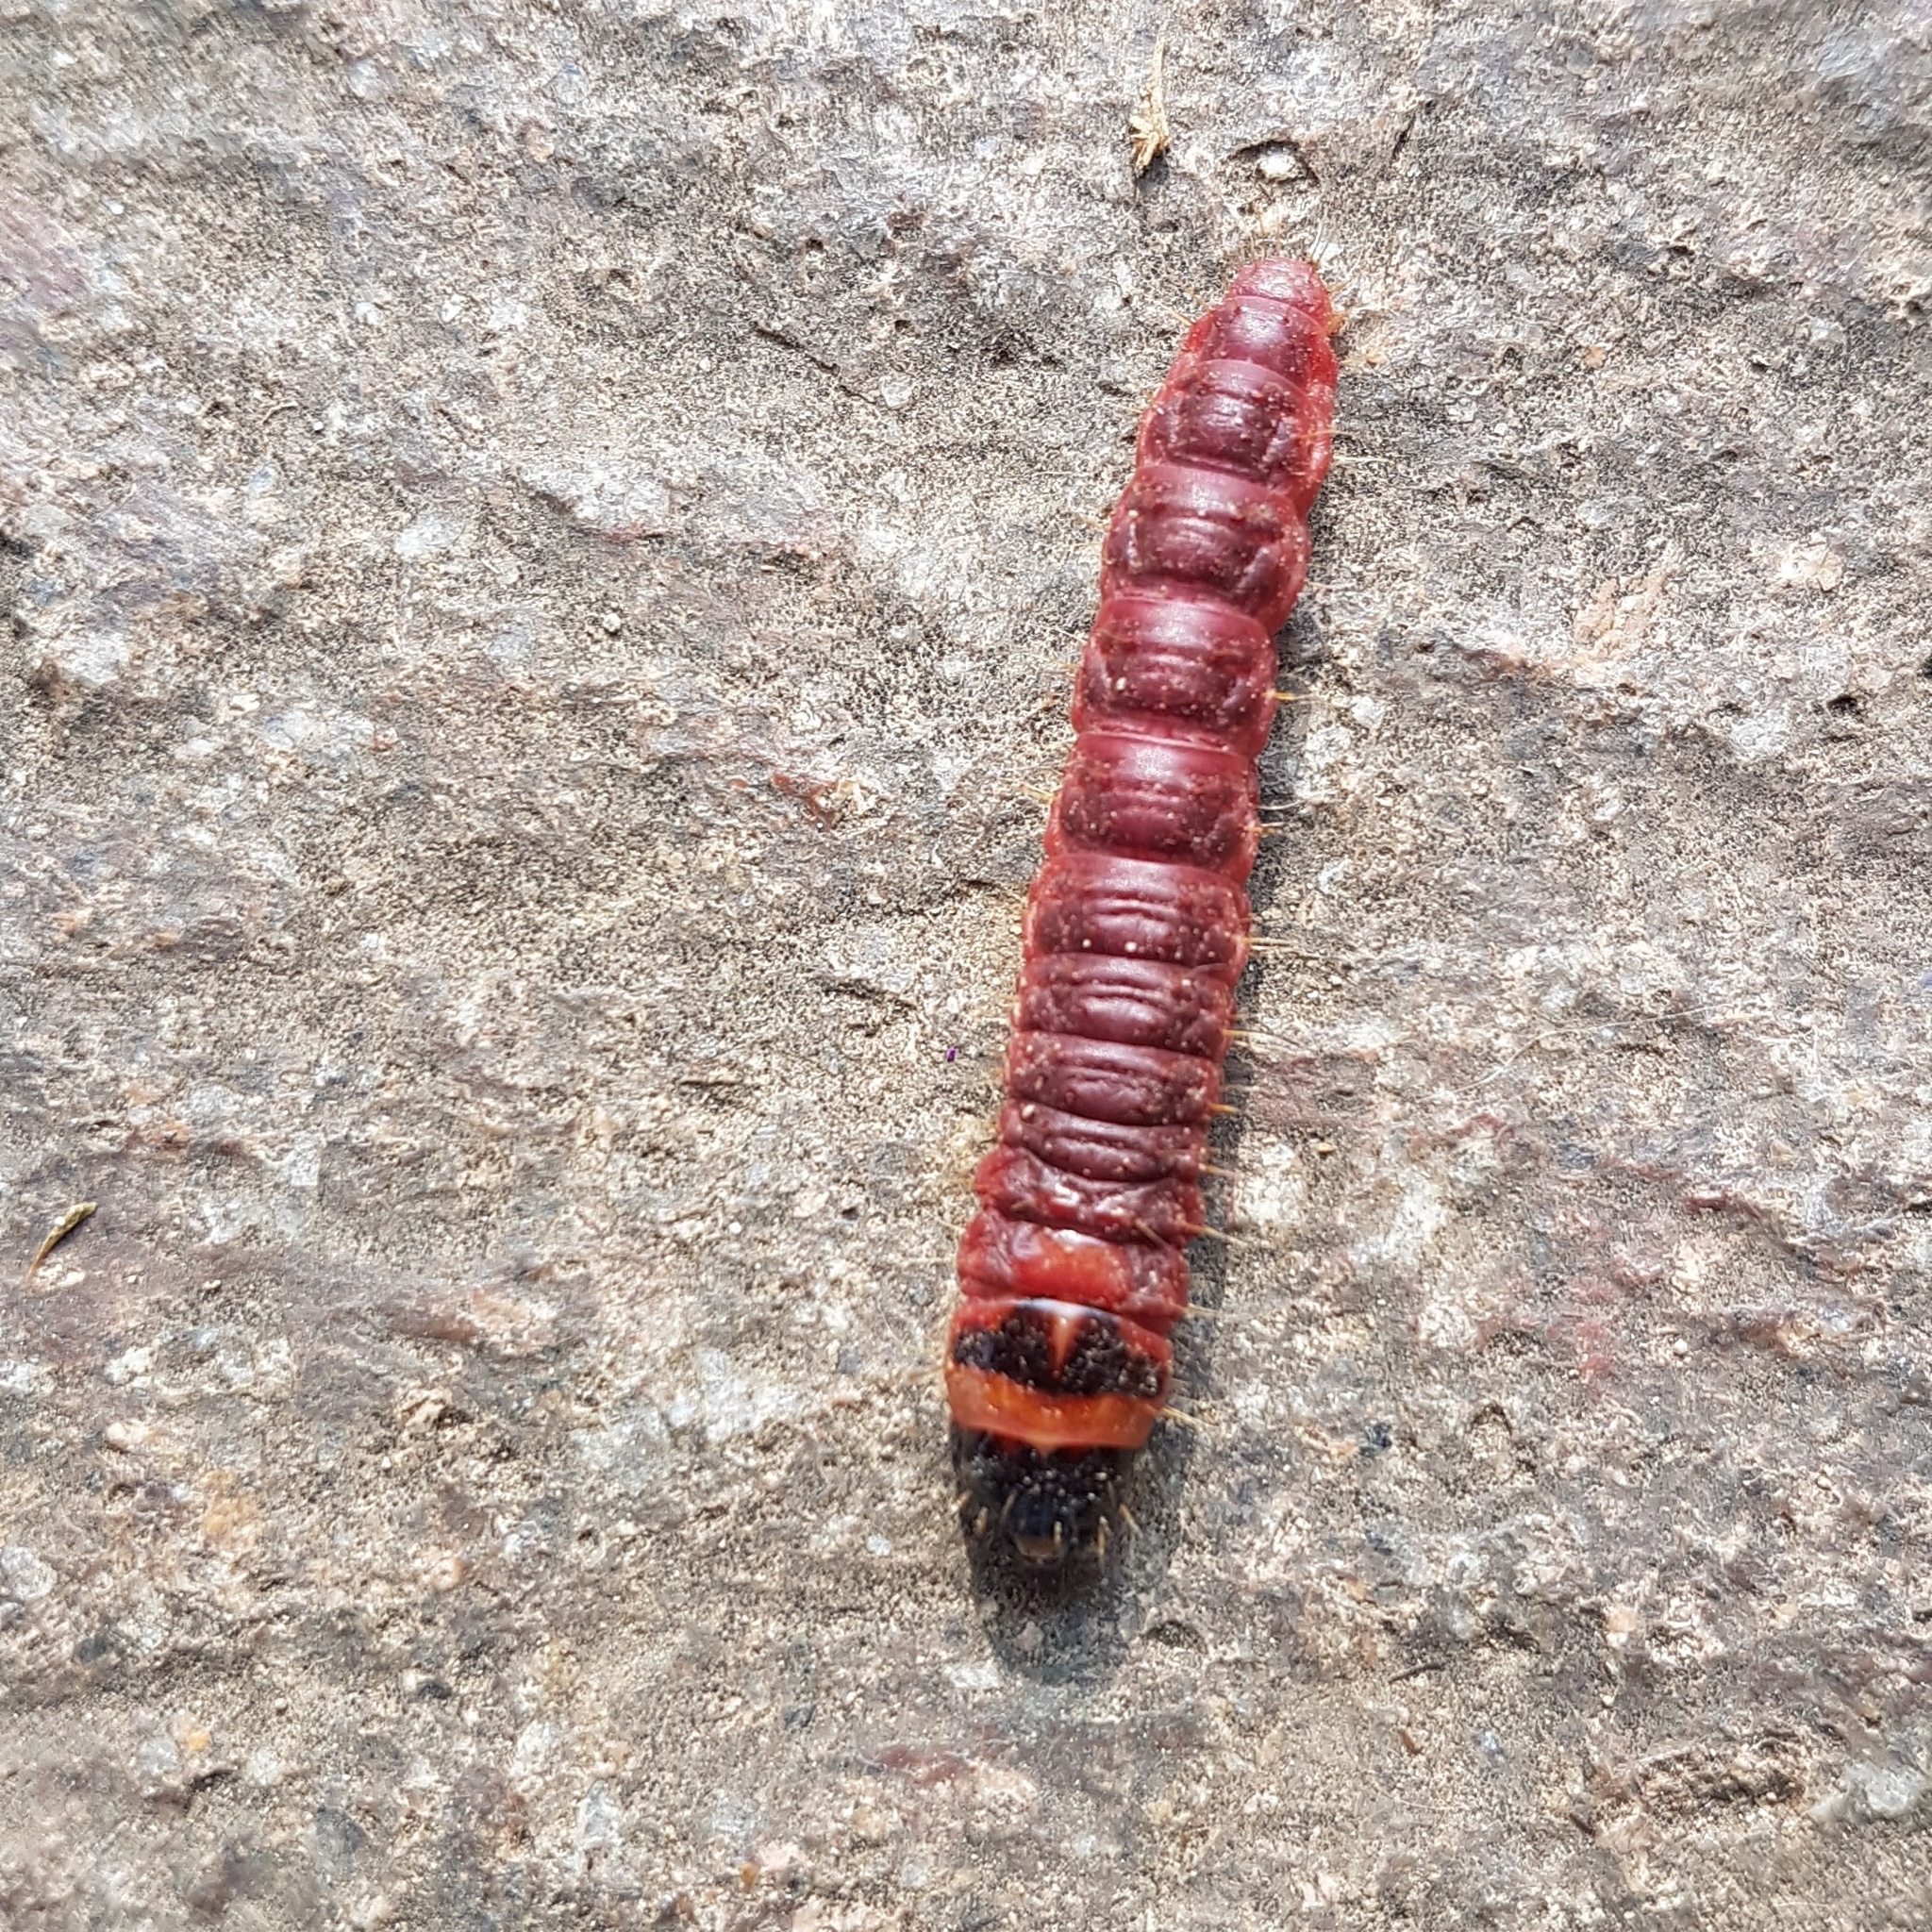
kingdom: Animalia
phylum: Arthropoda
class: Insecta
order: Lepidoptera
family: Cossidae
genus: Cossus
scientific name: Cossus cossus
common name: Goat moth
